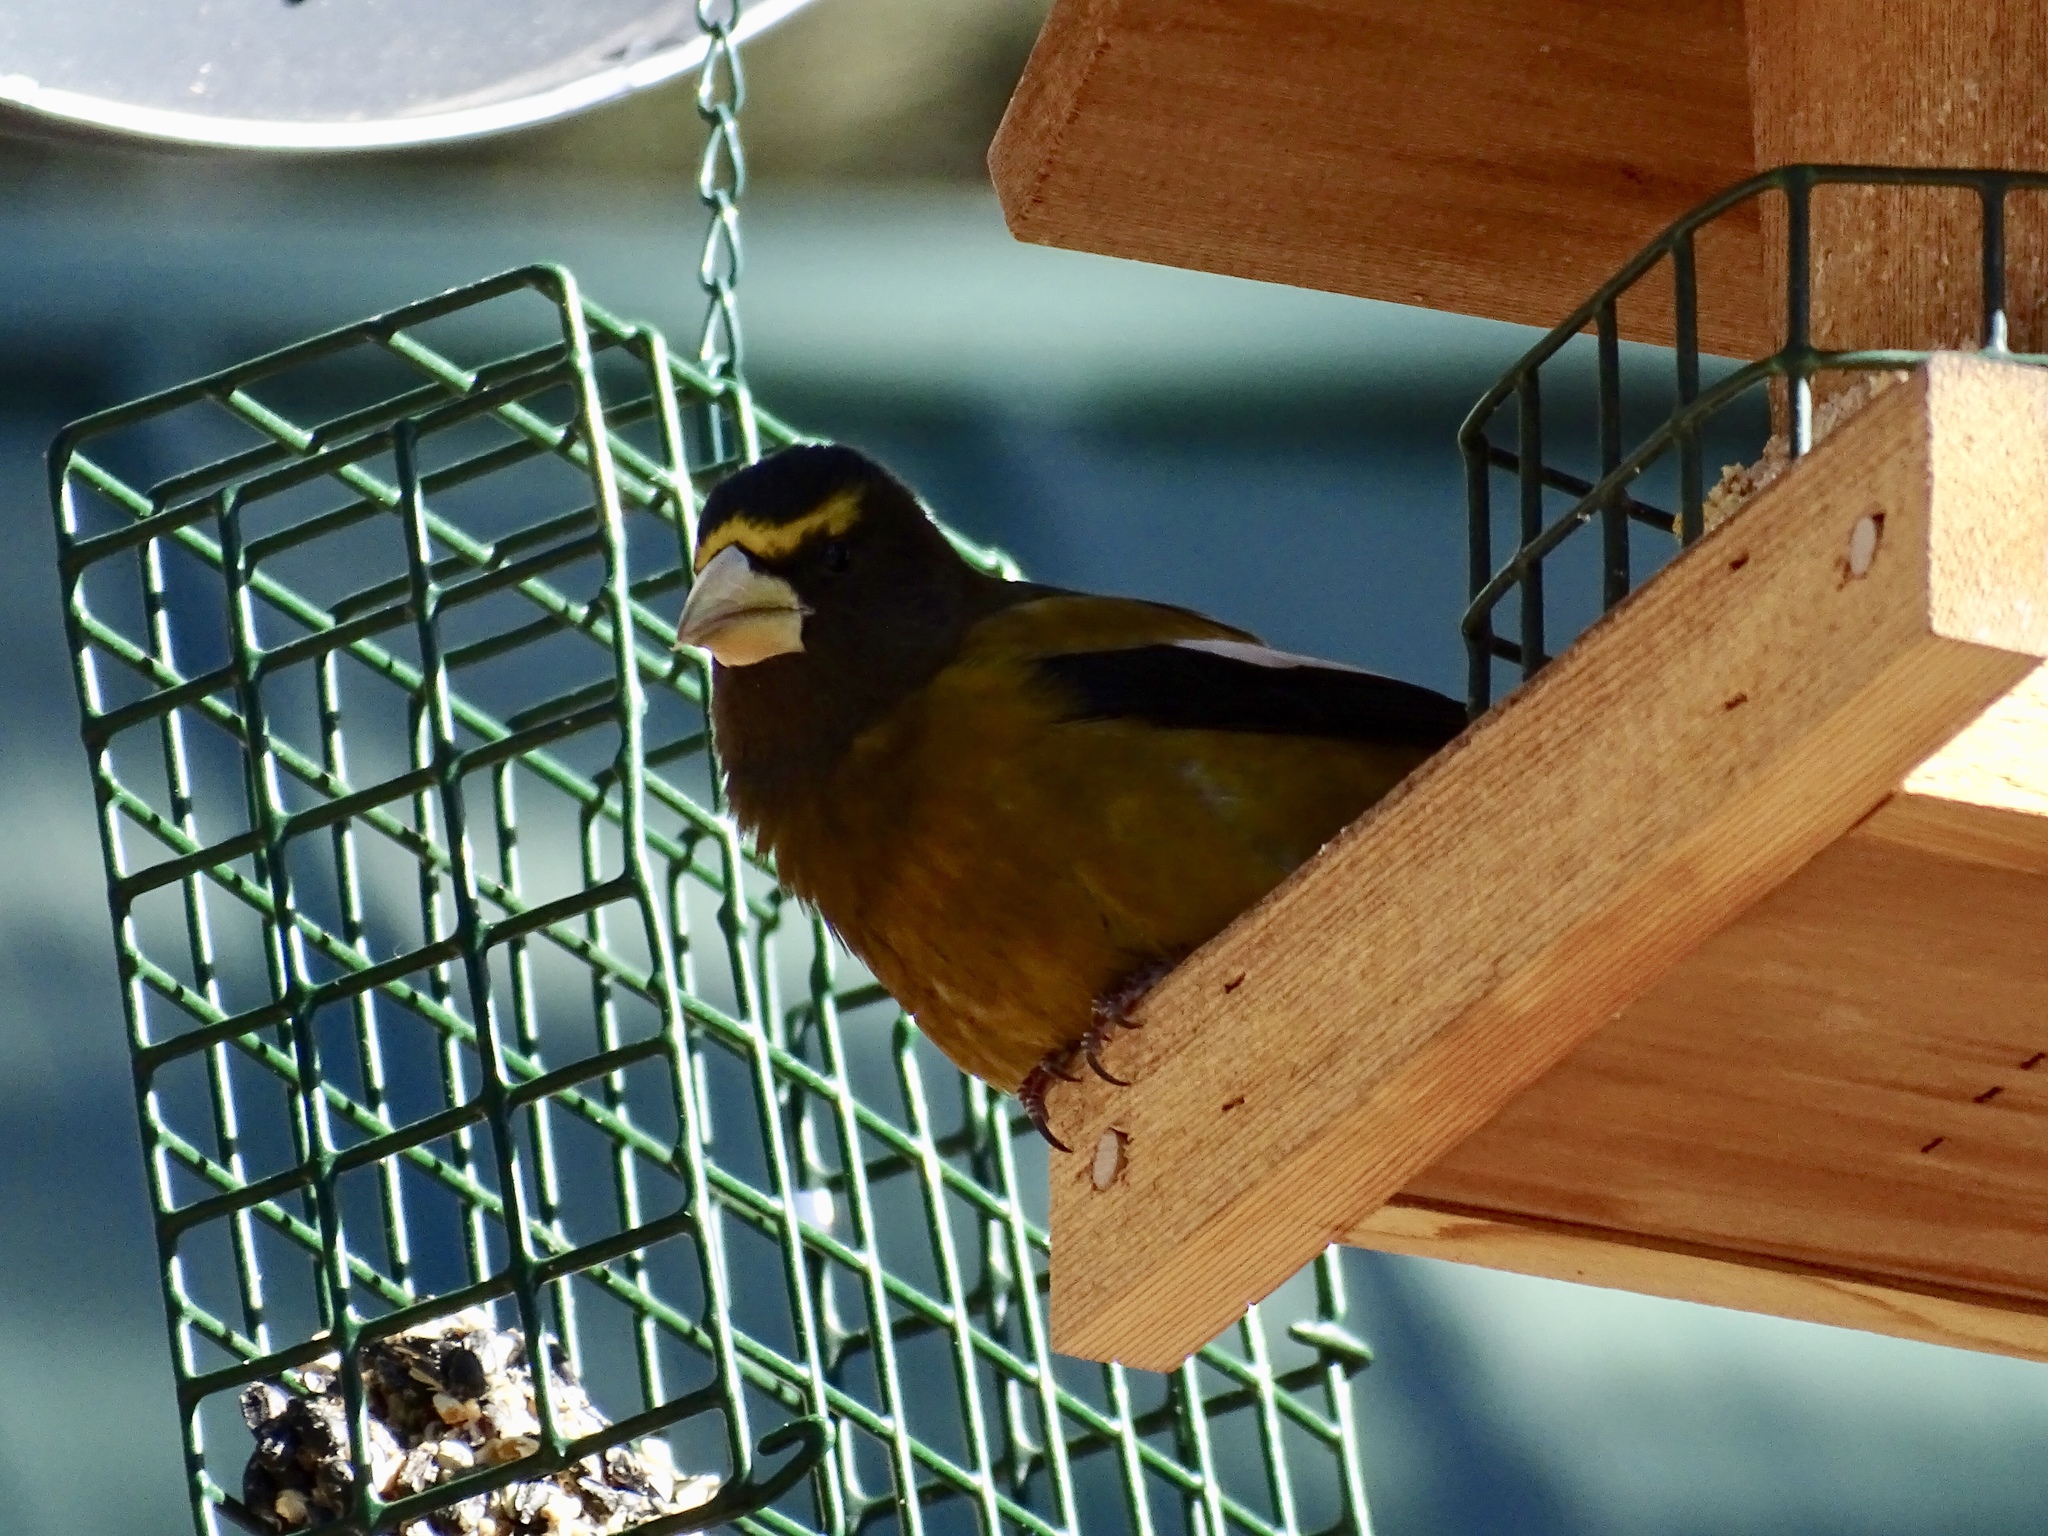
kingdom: Animalia
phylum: Chordata
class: Aves
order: Passeriformes
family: Fringillidae
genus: Hesperiphona
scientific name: Hesperiphona vespertina
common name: Evening grosbeak
